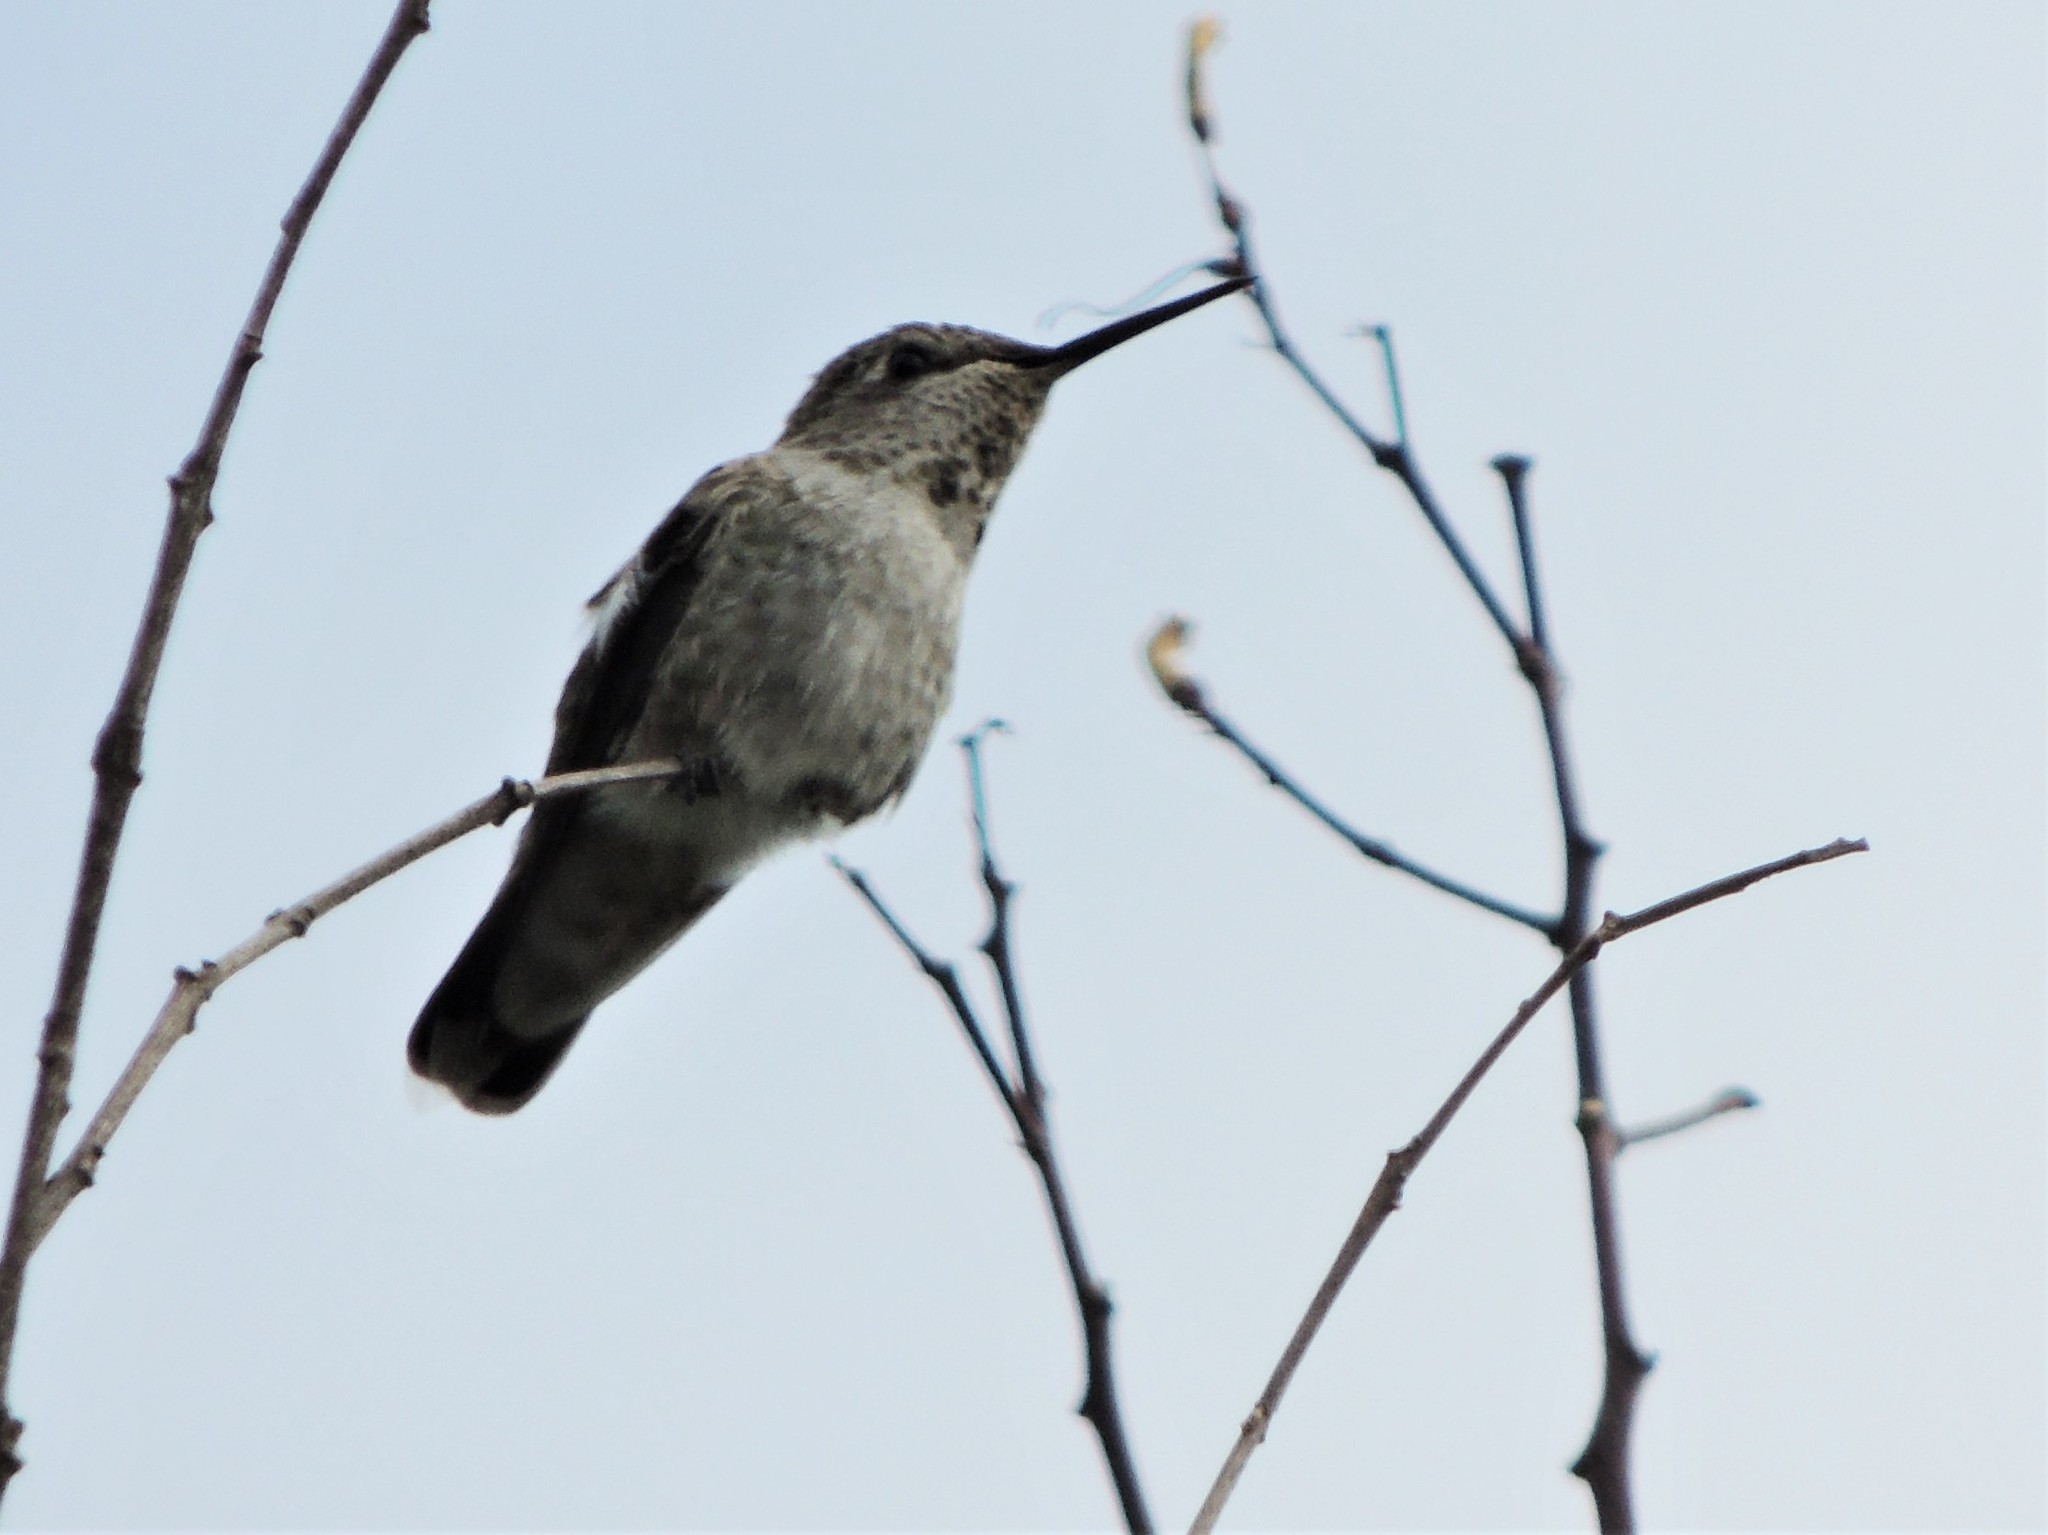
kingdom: Animalia
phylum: Chordata
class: Aves
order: Apodiformes
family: Trochilidae
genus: Calypte
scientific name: Calypte anna
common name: Anna's hummingbird
